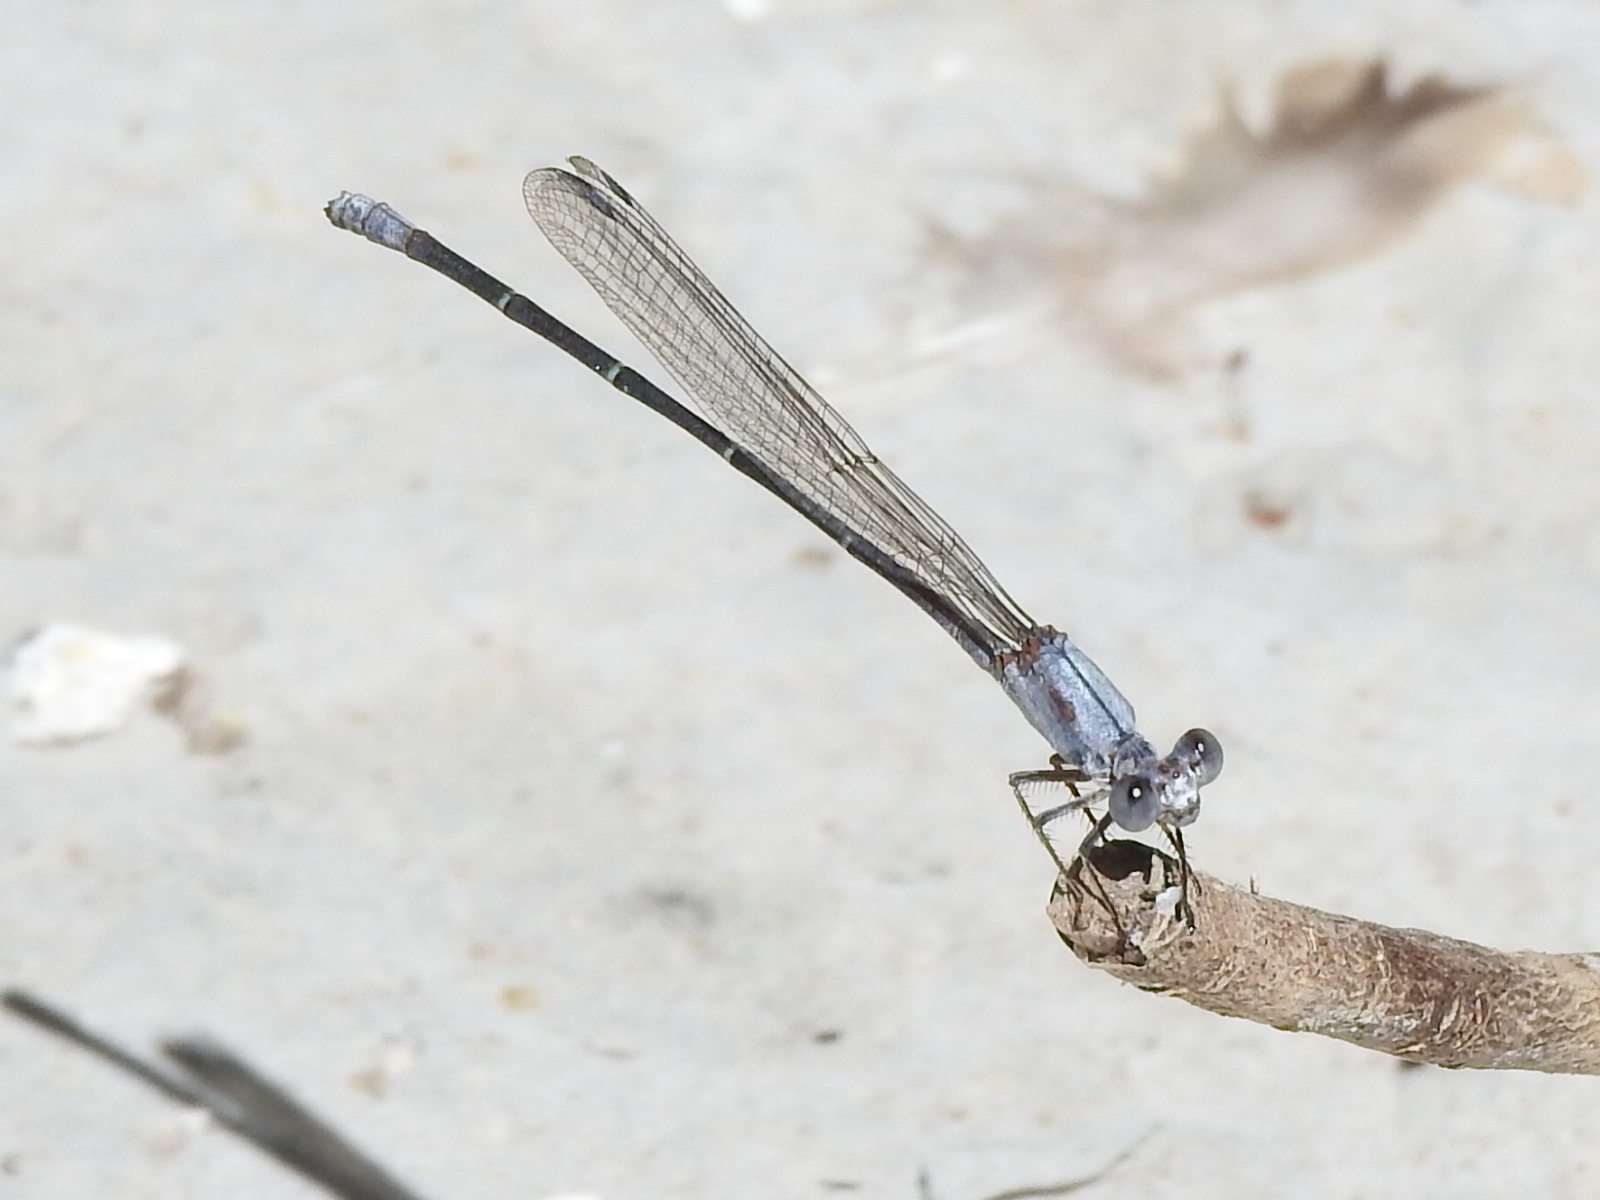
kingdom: Animalia
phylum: Arthropoda
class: Insecta
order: Odonata
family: Coenagrionidae
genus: Argia
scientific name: Argia moesta
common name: Powdered dancer
